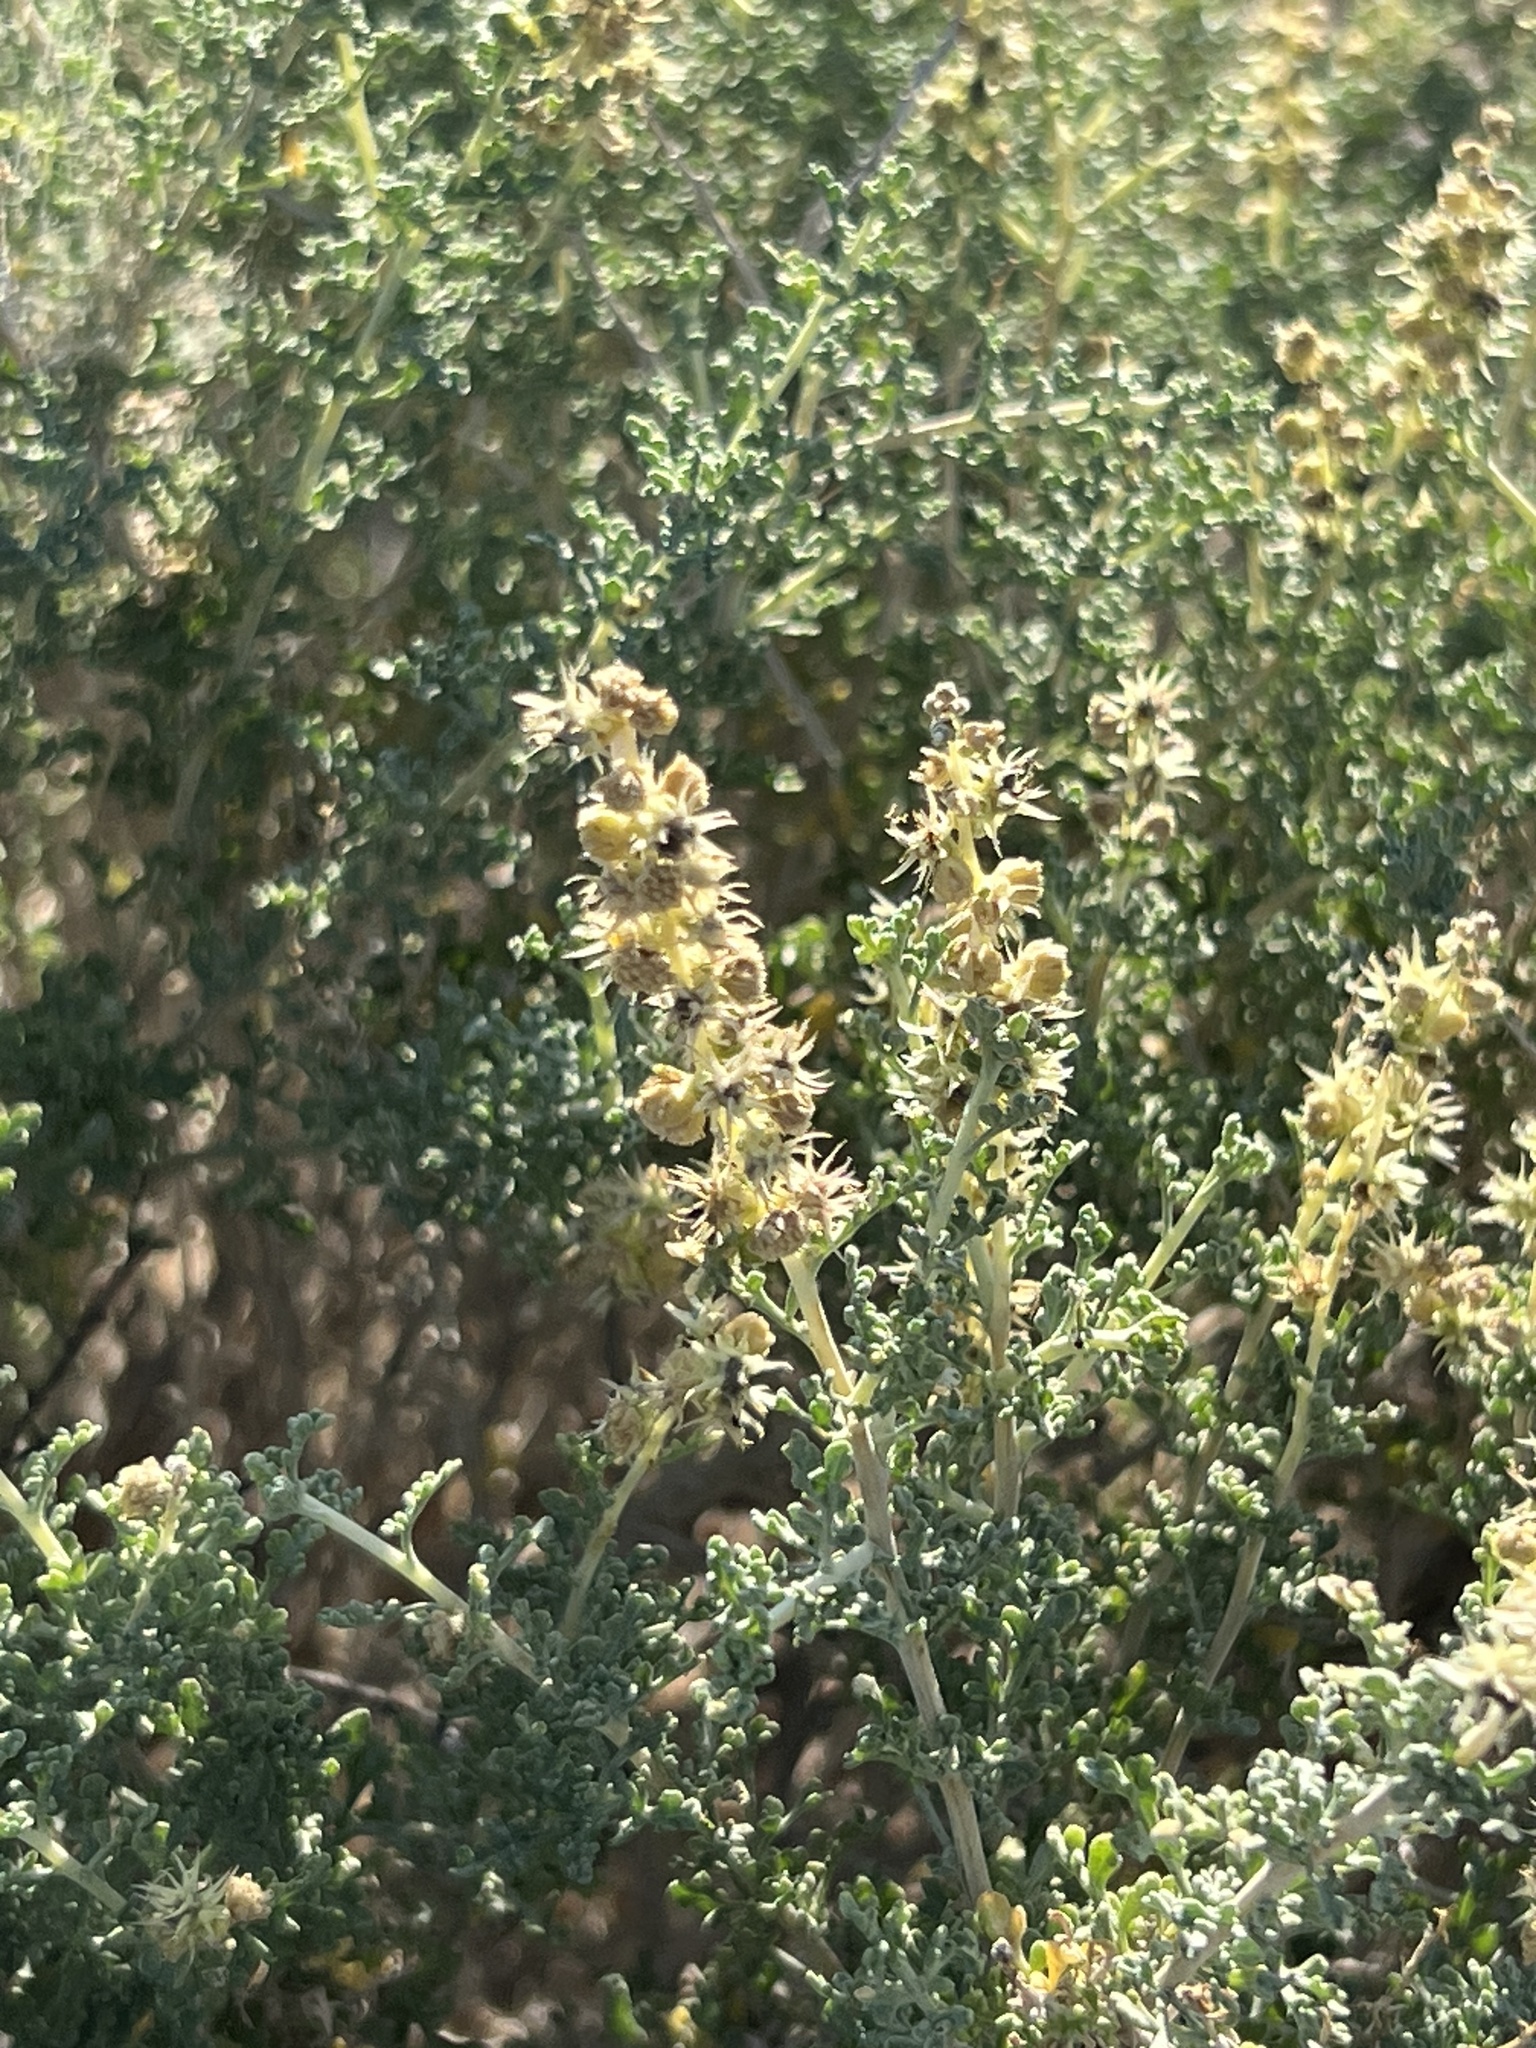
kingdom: Plantae
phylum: Tracheophyta
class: Magnoliopsida
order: Asterales
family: Asteraceae
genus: Ambrosia
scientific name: Ambrosia dumosa
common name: Bur-sage
